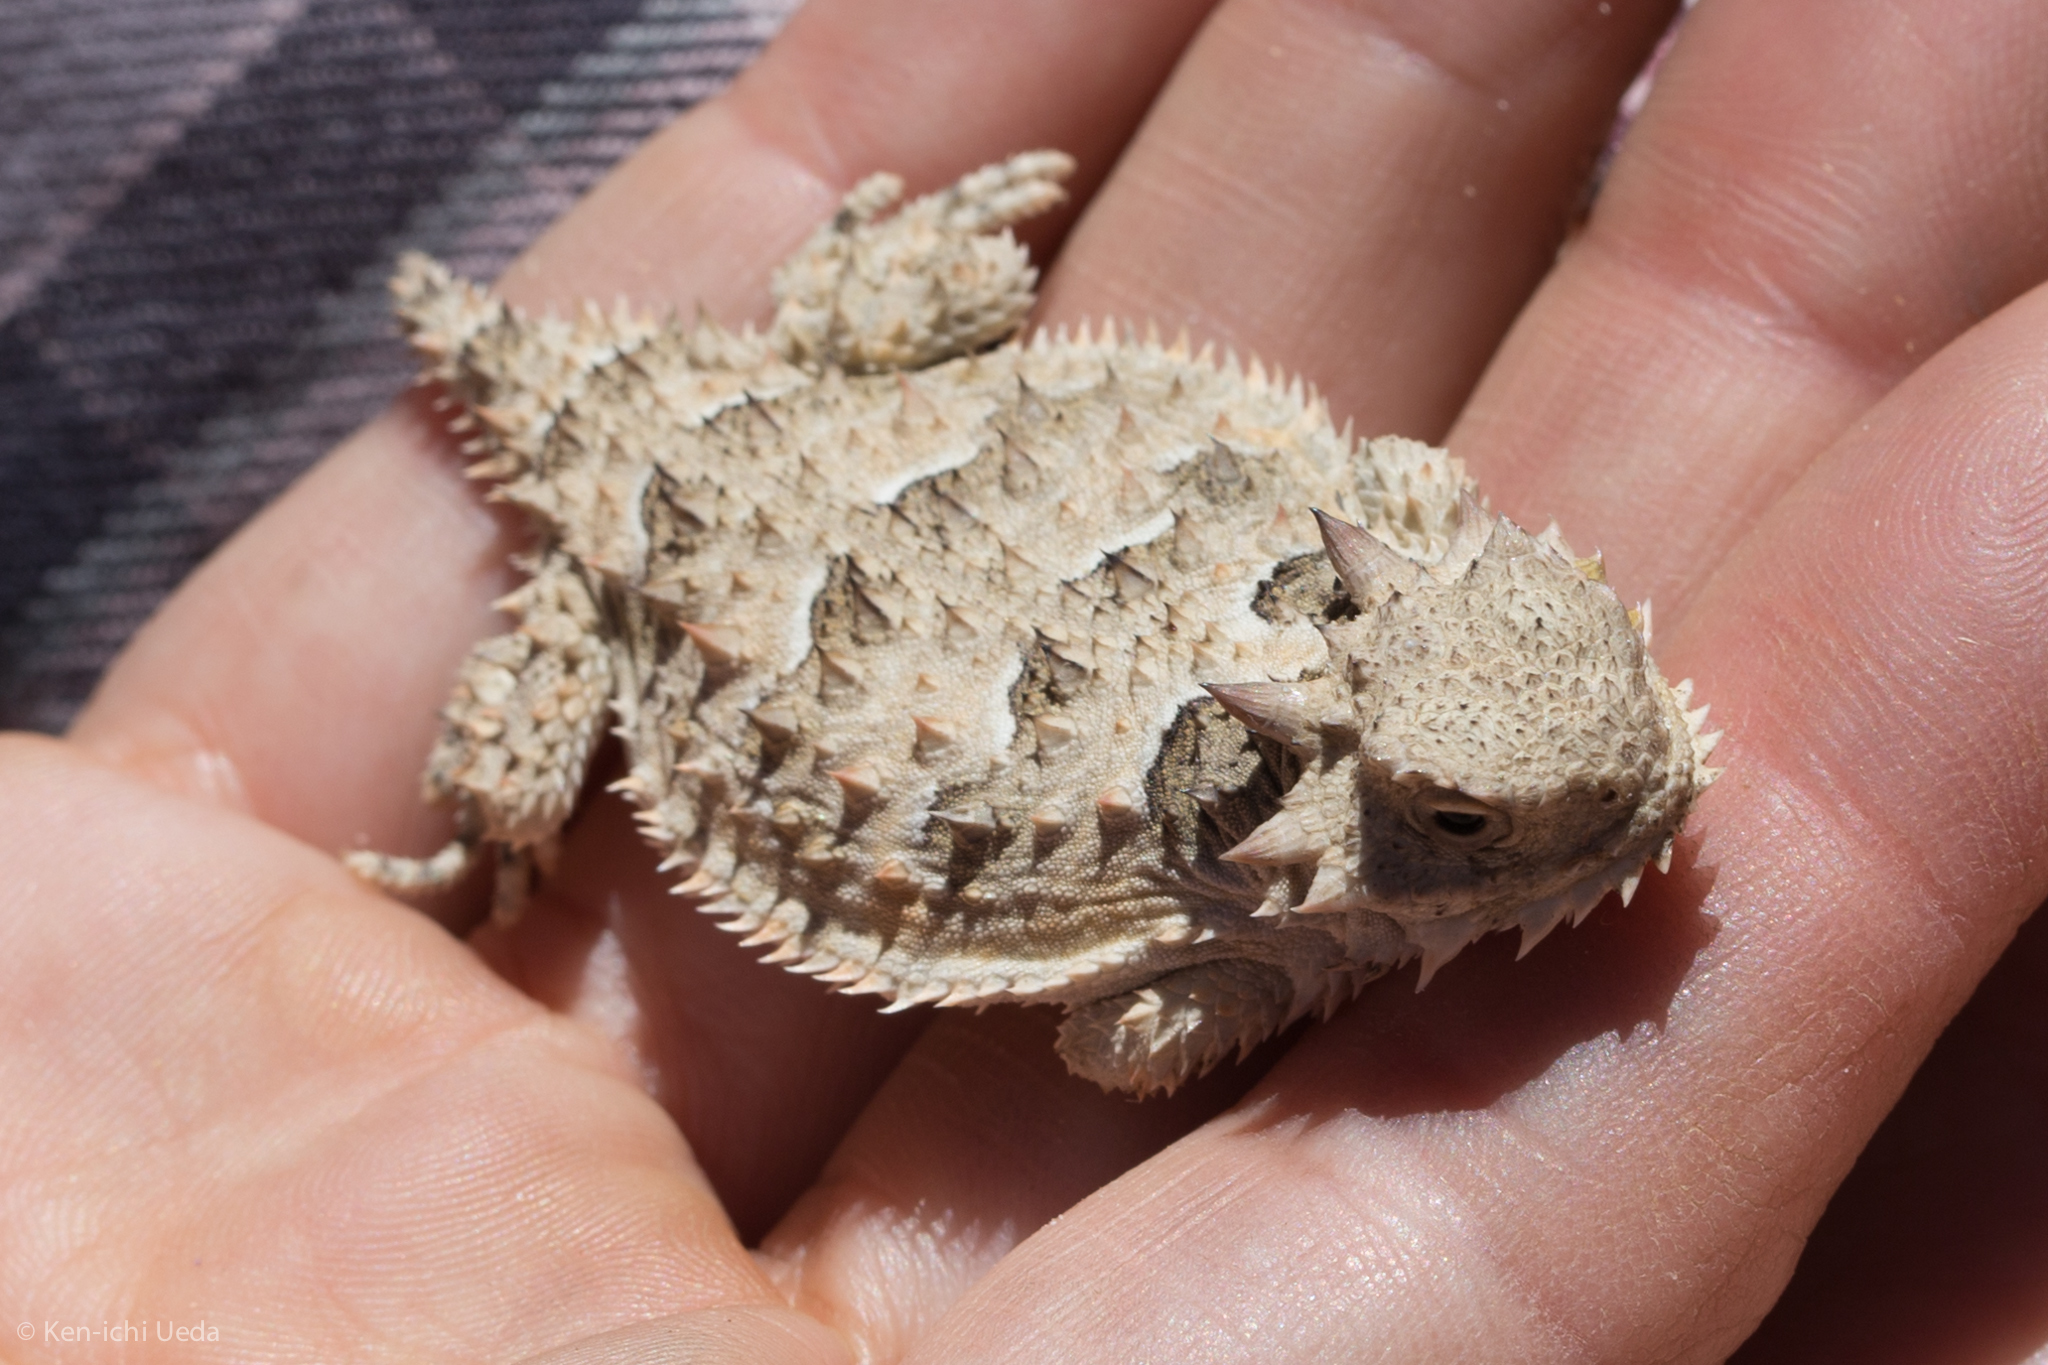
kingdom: Animalia
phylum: Chordata
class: Squamata
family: Phrynosomatidae
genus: Phrynosoma
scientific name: Phrynosoma blainvillii
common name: San diego horned lizard
